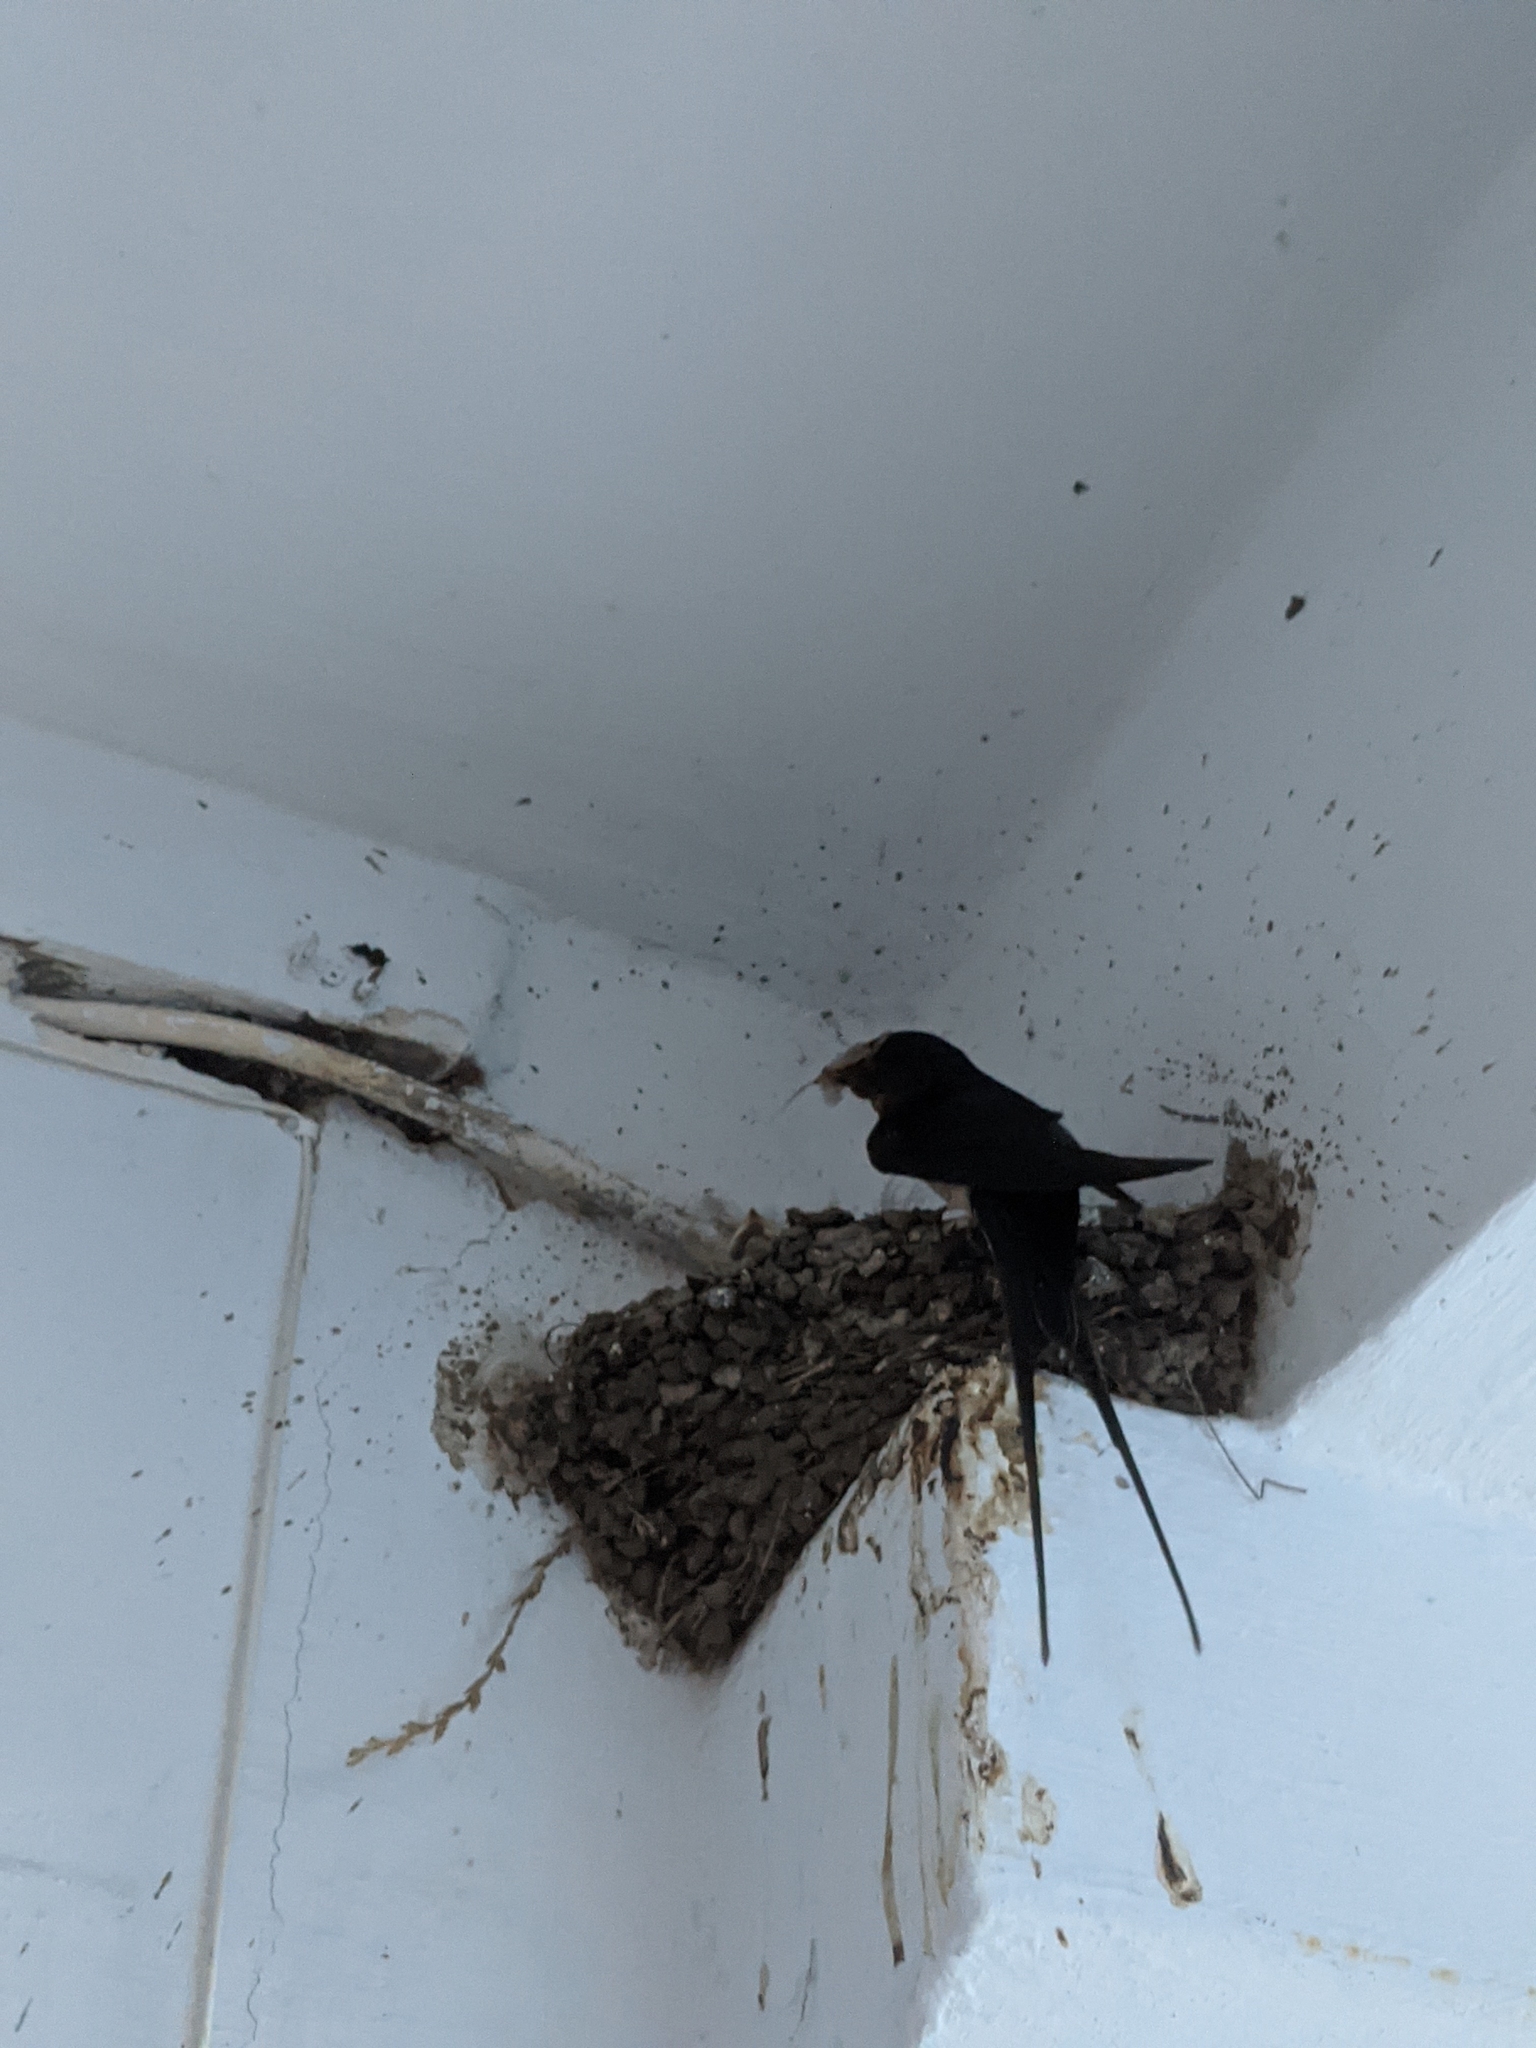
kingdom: Animalia
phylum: Chordata
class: Aves
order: Passeriformes
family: Hirundinidae
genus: Hirundo
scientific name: Hirundo rustica
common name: Barn swallow
